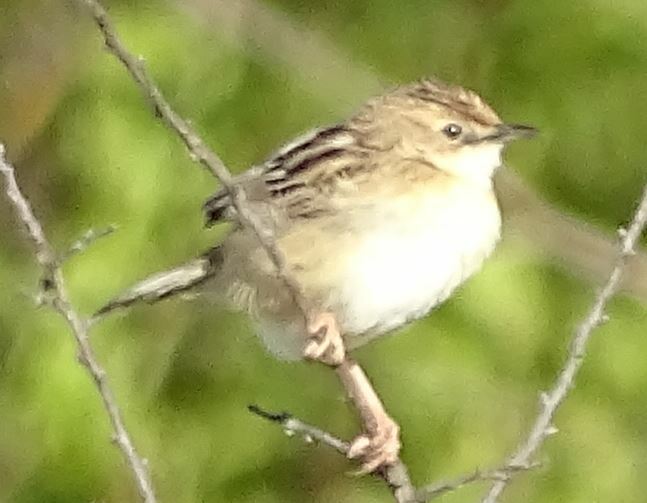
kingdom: Animalia
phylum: Chordata
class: Aves
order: Passeriformes
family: Cisticolidae
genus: Cisticola
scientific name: Cisticola juncidis
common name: Zitting cisticola
